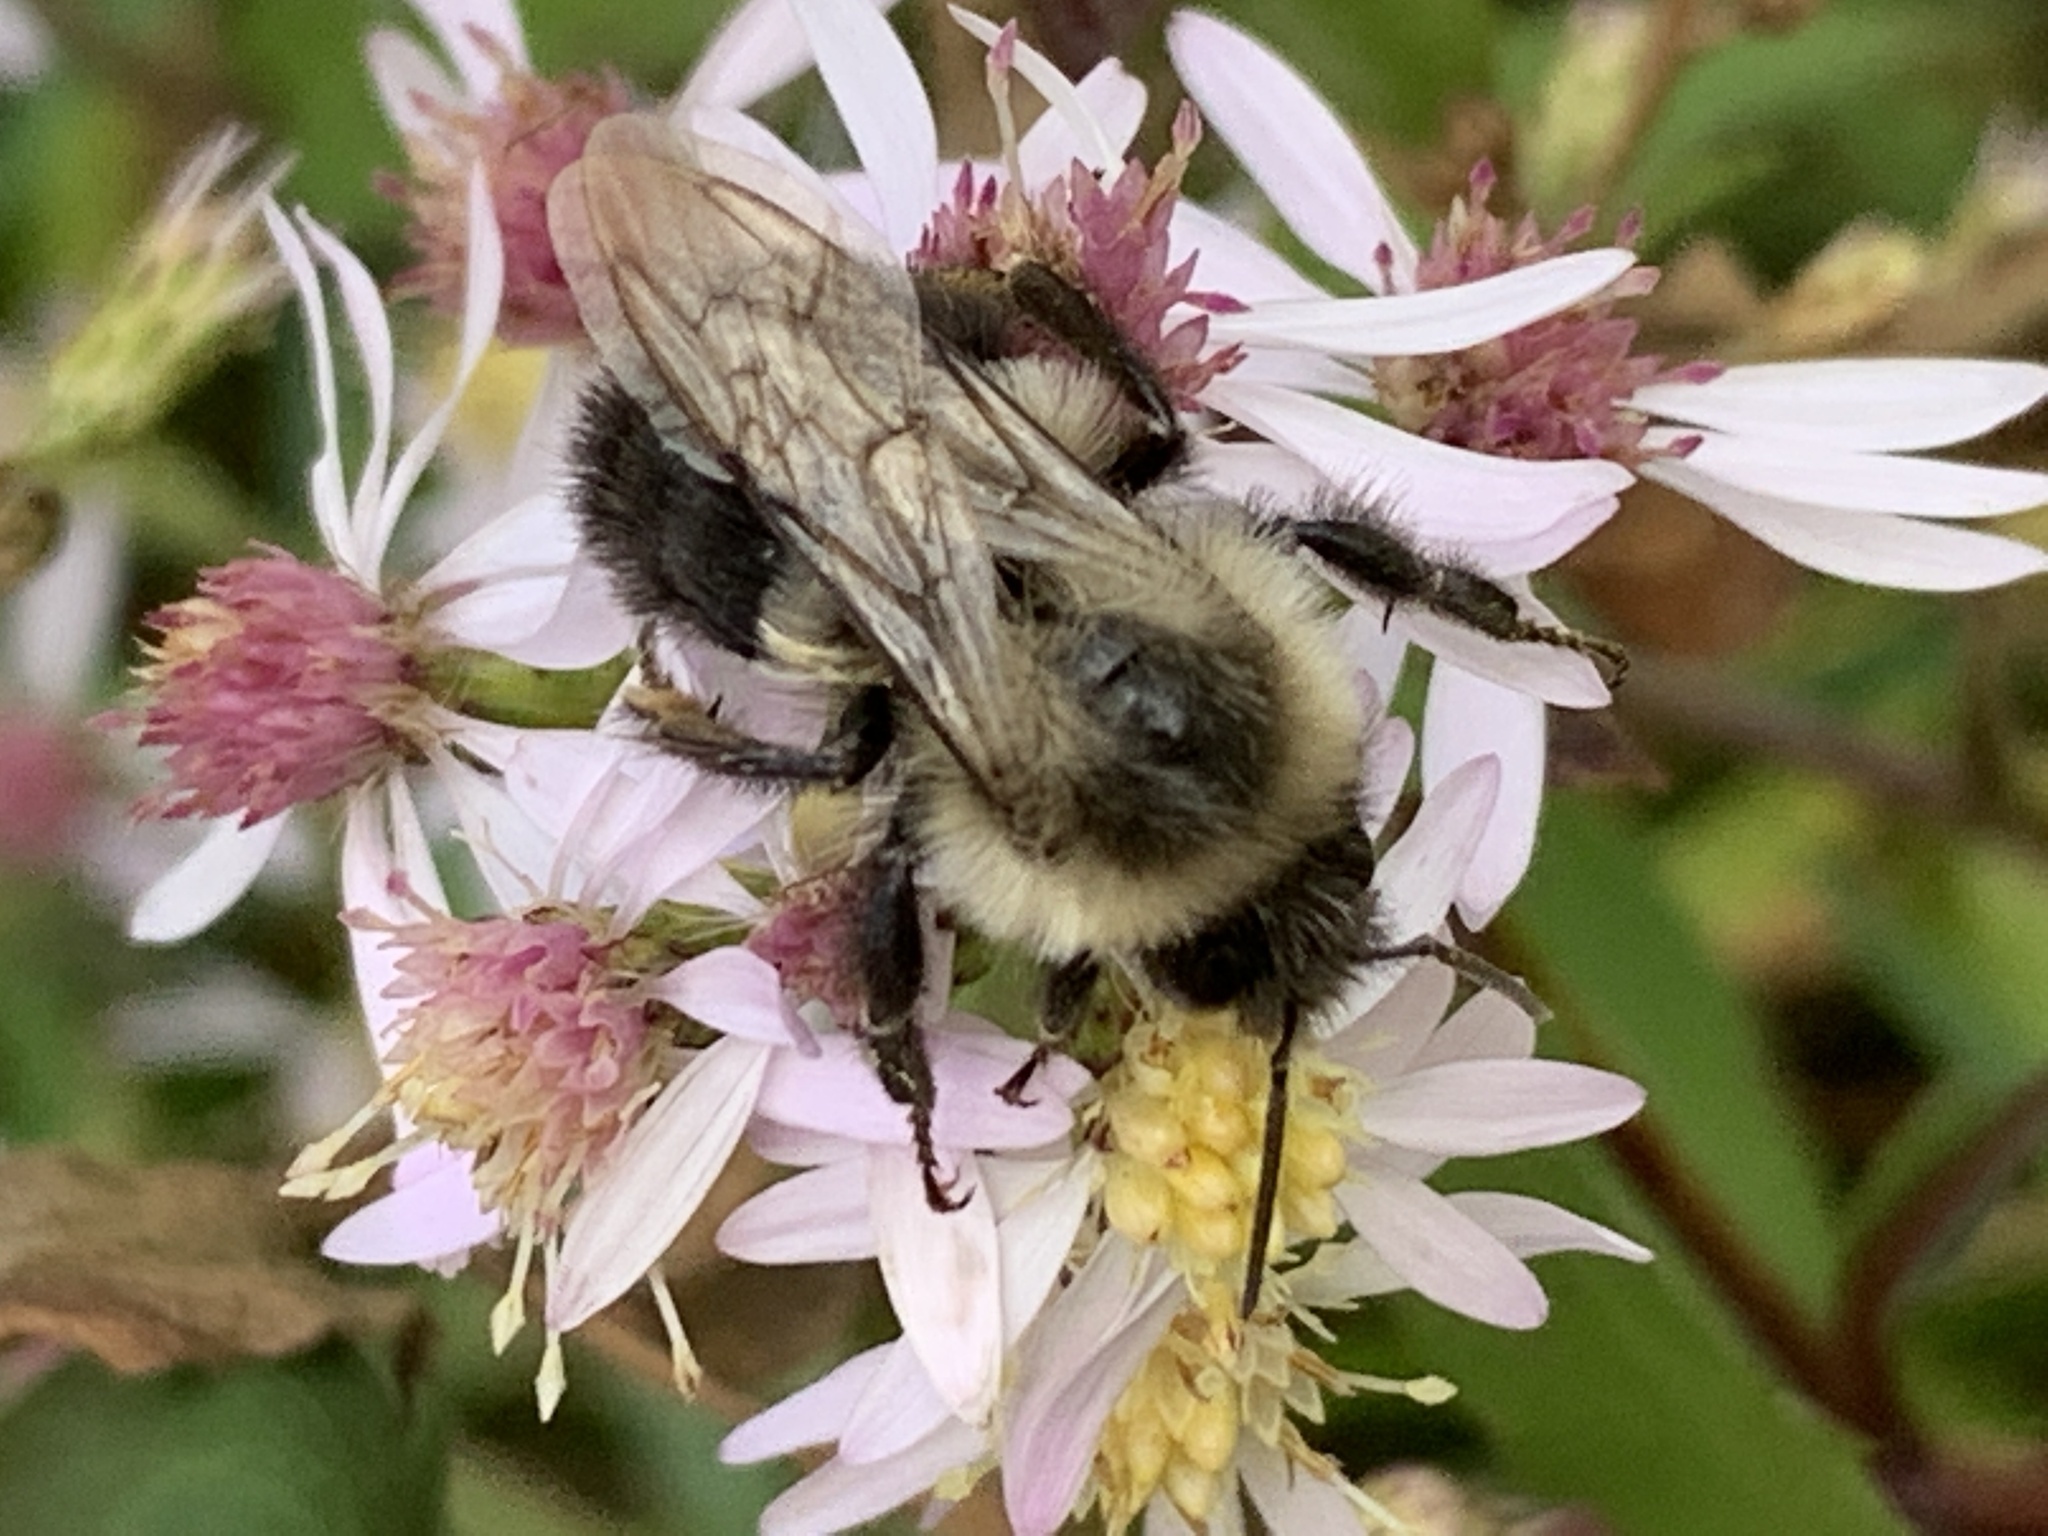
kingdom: Animalia
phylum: Arthropoda
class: Insecta
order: Hymenoptera
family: Apidae
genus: Bombus
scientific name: Bombus impatiens
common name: Common eastern bumble bee
